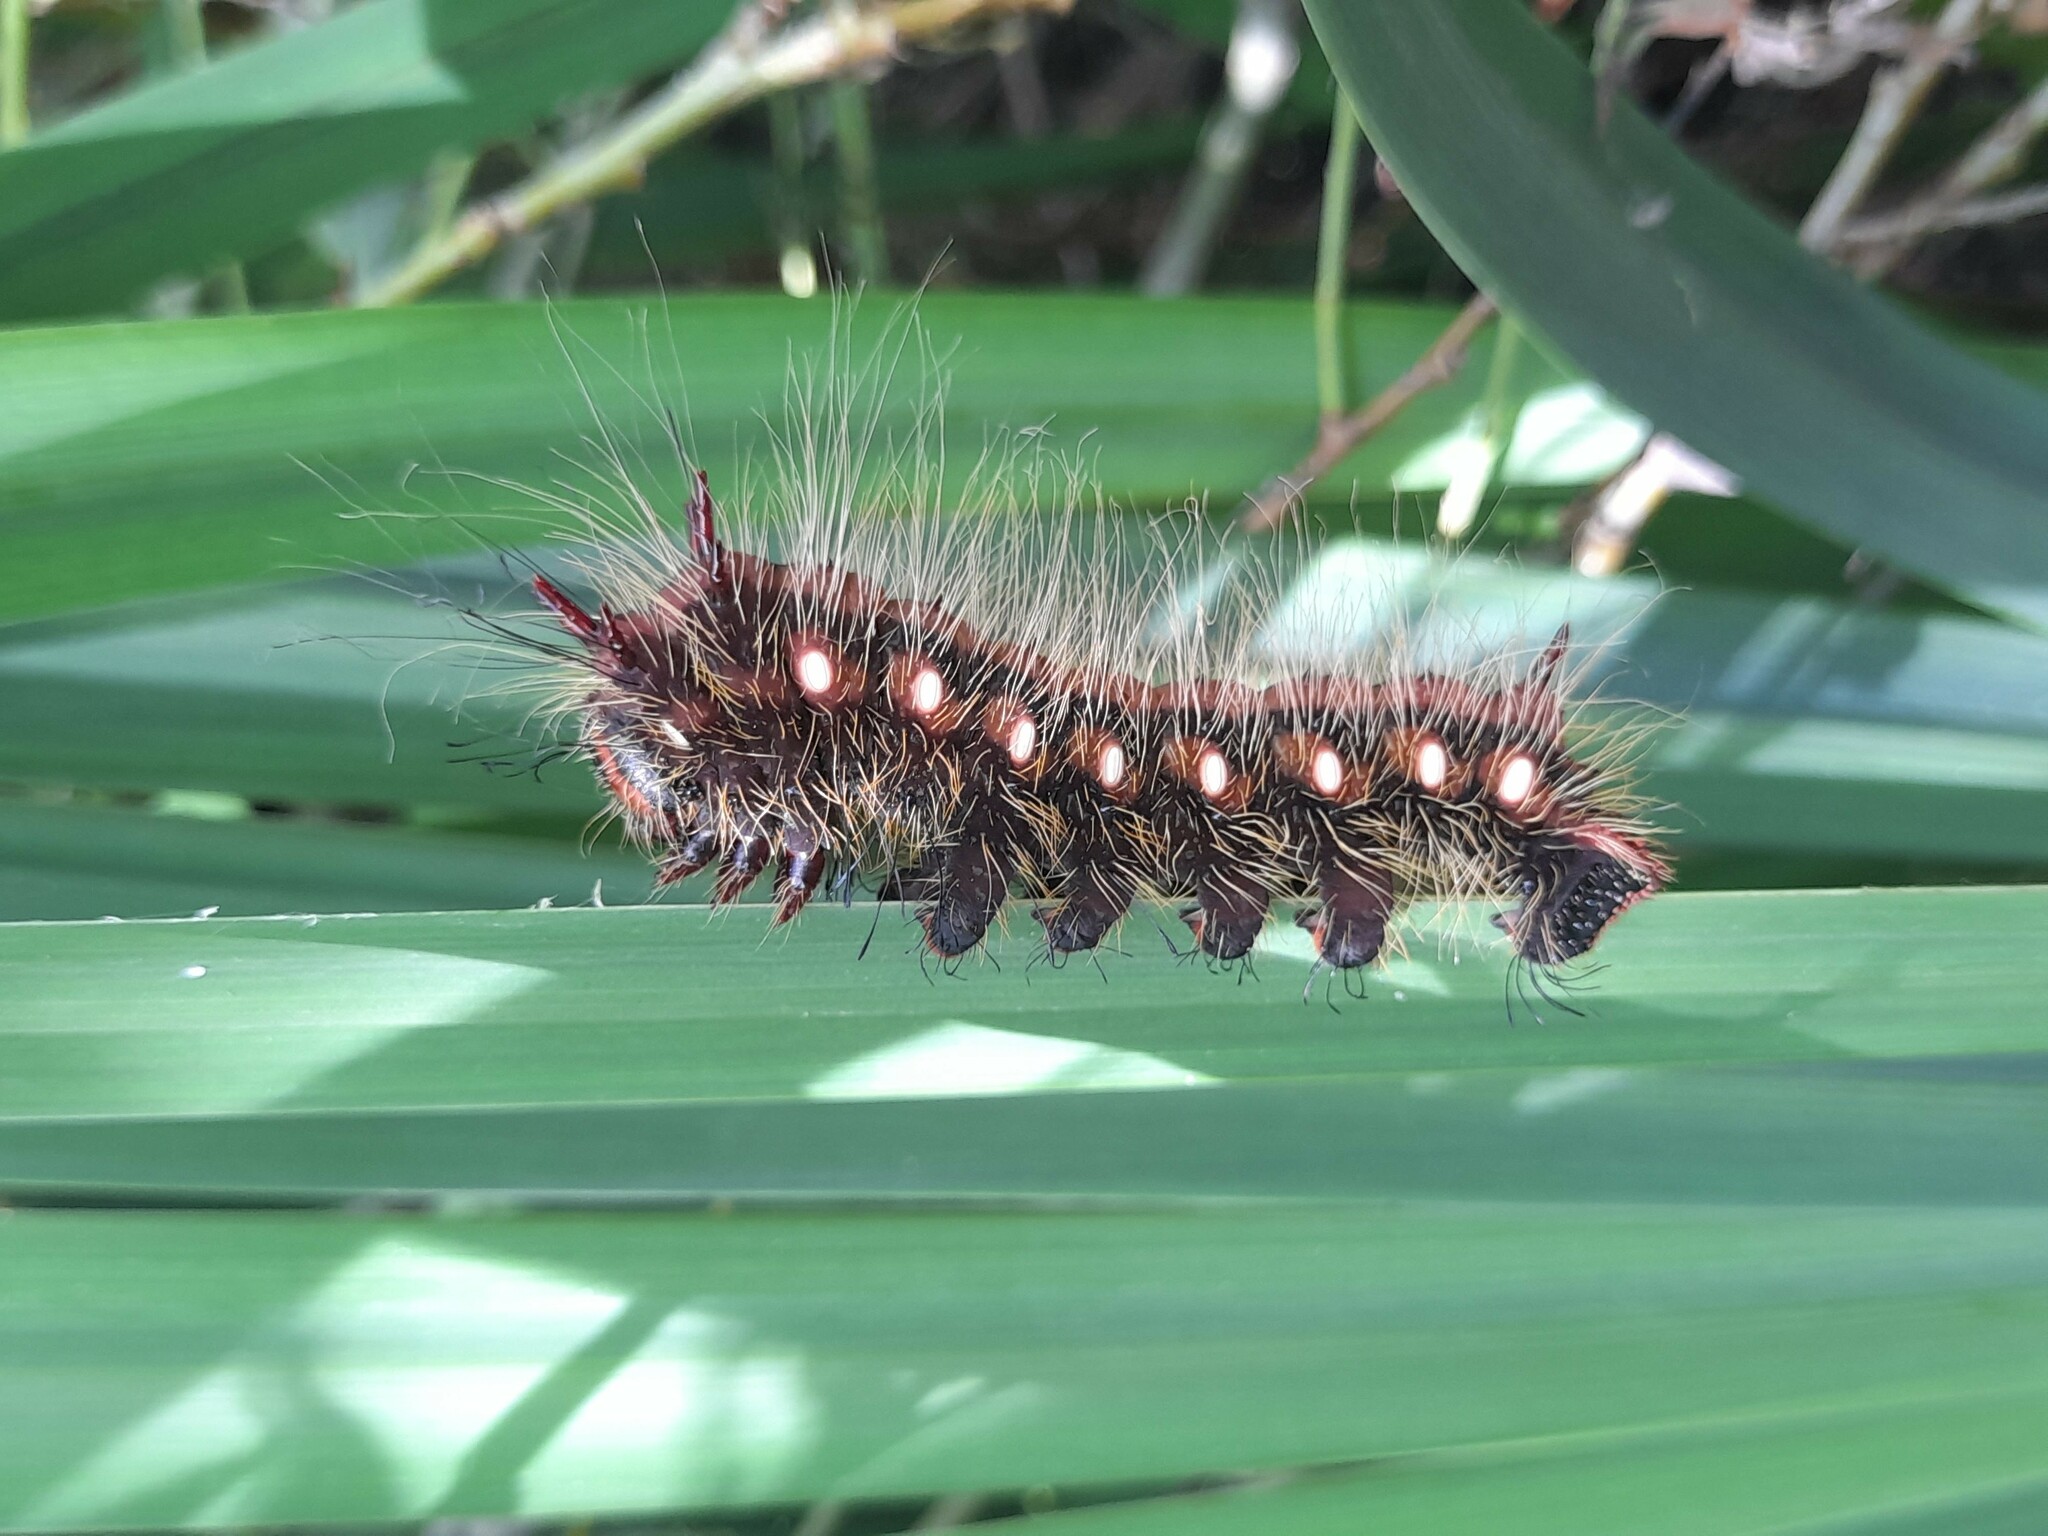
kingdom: Animalia
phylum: Arthropoda
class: Insecta
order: Lepidoptera
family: Saturniidae
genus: Eacles
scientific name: Eacles imperialis
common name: Imperial moth
